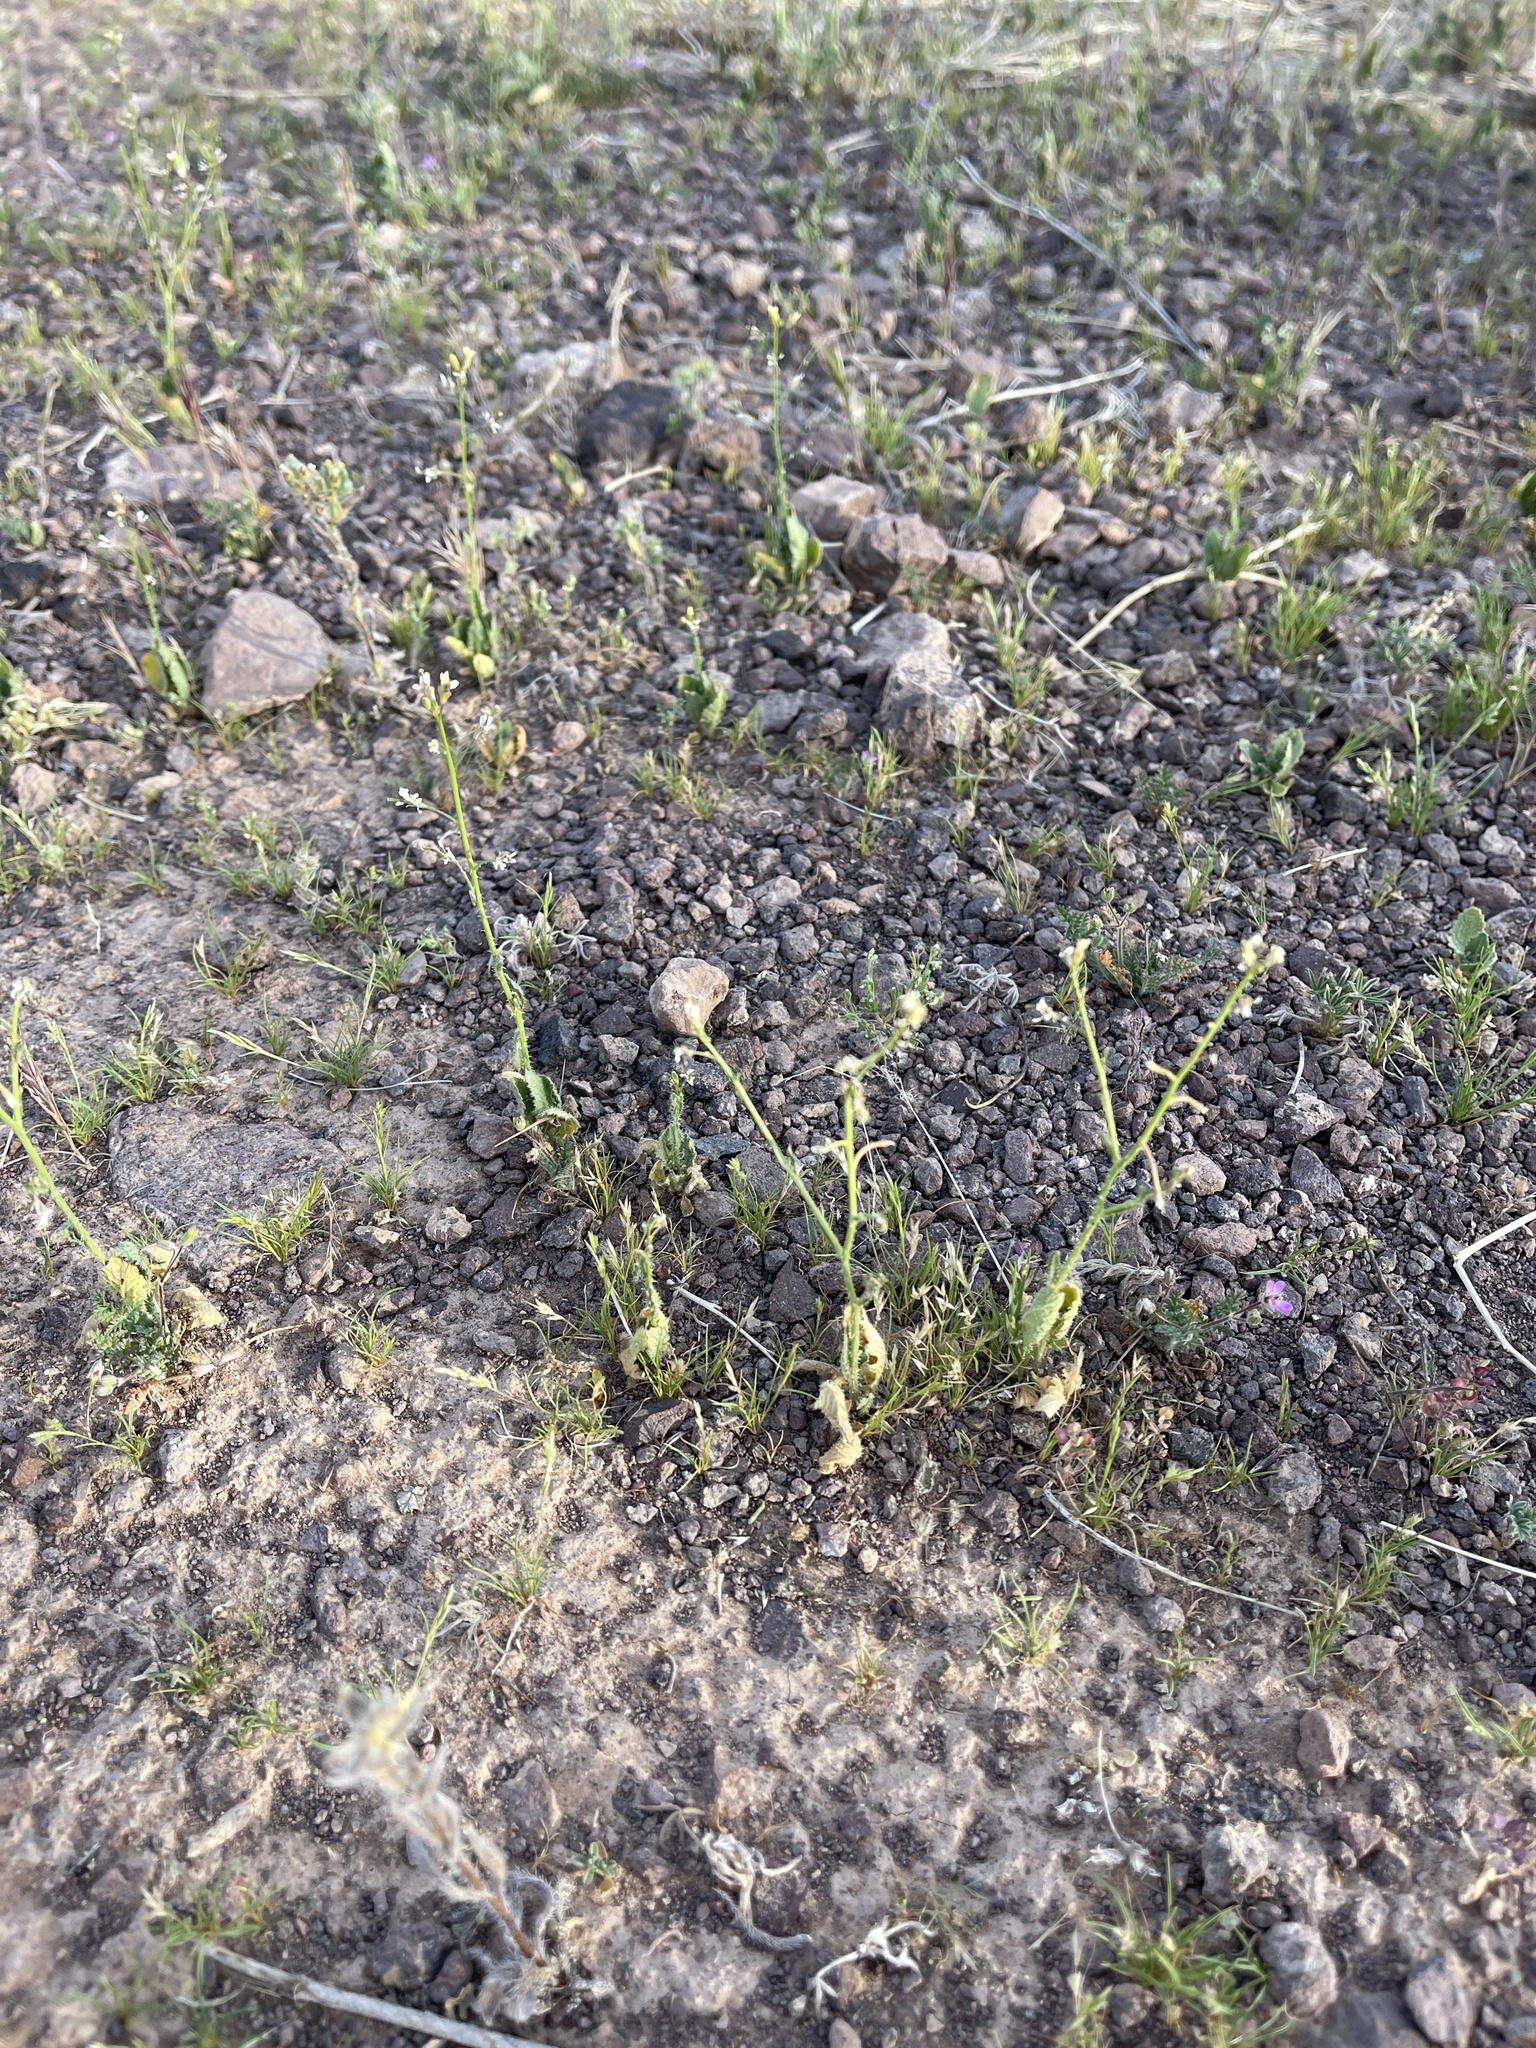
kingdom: Plantae
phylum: Tracheophyta
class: Magnoliopsida
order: Brassicales
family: Brassicaceae
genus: Brassica
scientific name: Brassica tournefortii
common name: Pale cabbage
